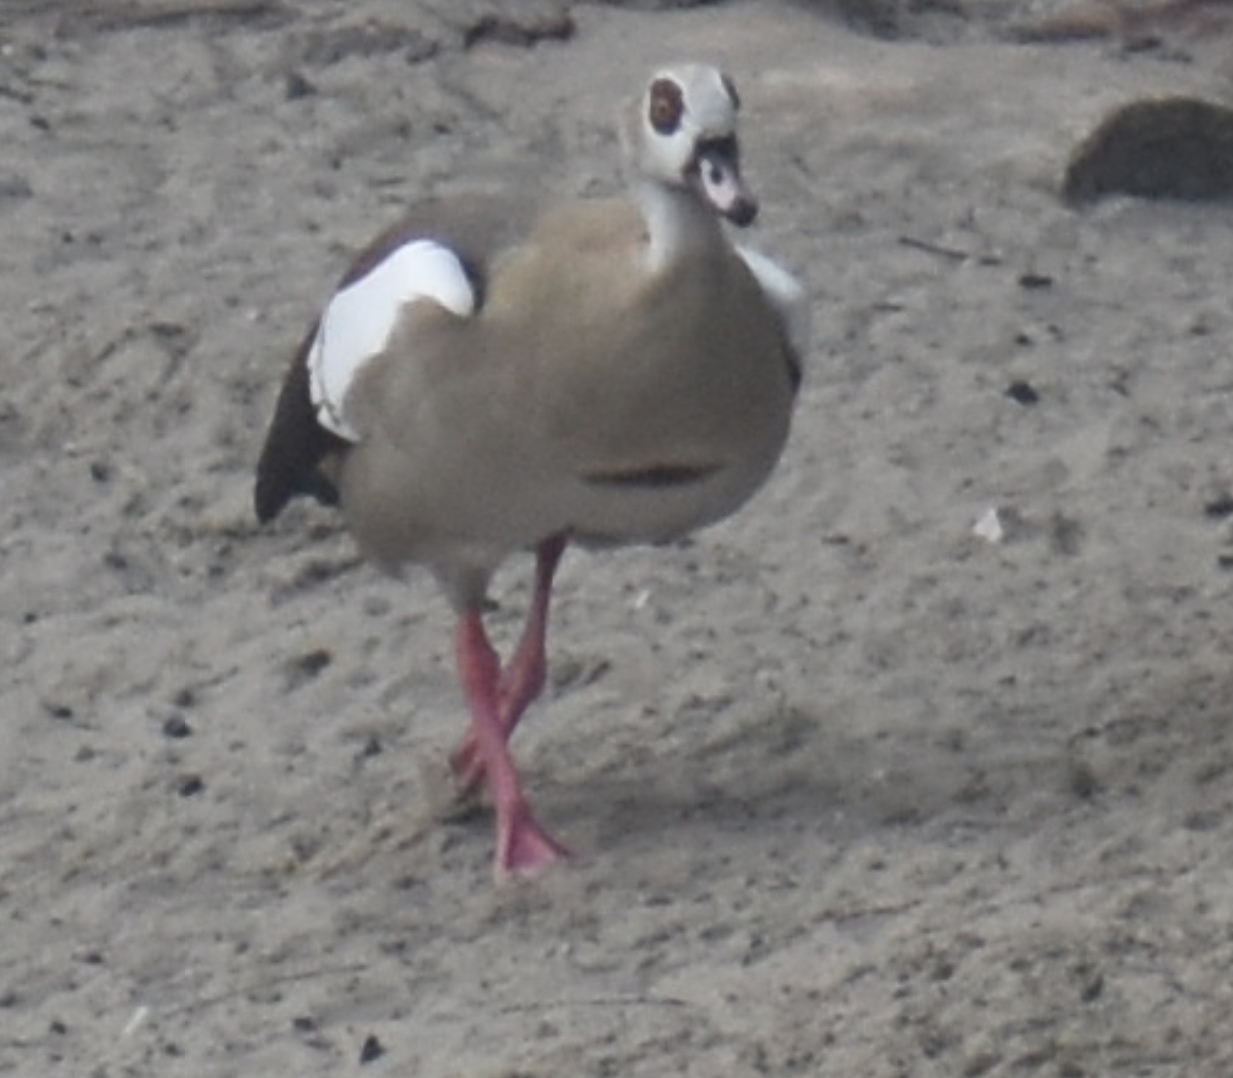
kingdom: Animalia
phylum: Chordata
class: Aves
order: Anseriformes
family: Anatidae
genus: Alopochen
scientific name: Alopochen aegyptiaca
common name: Egyptian goose
